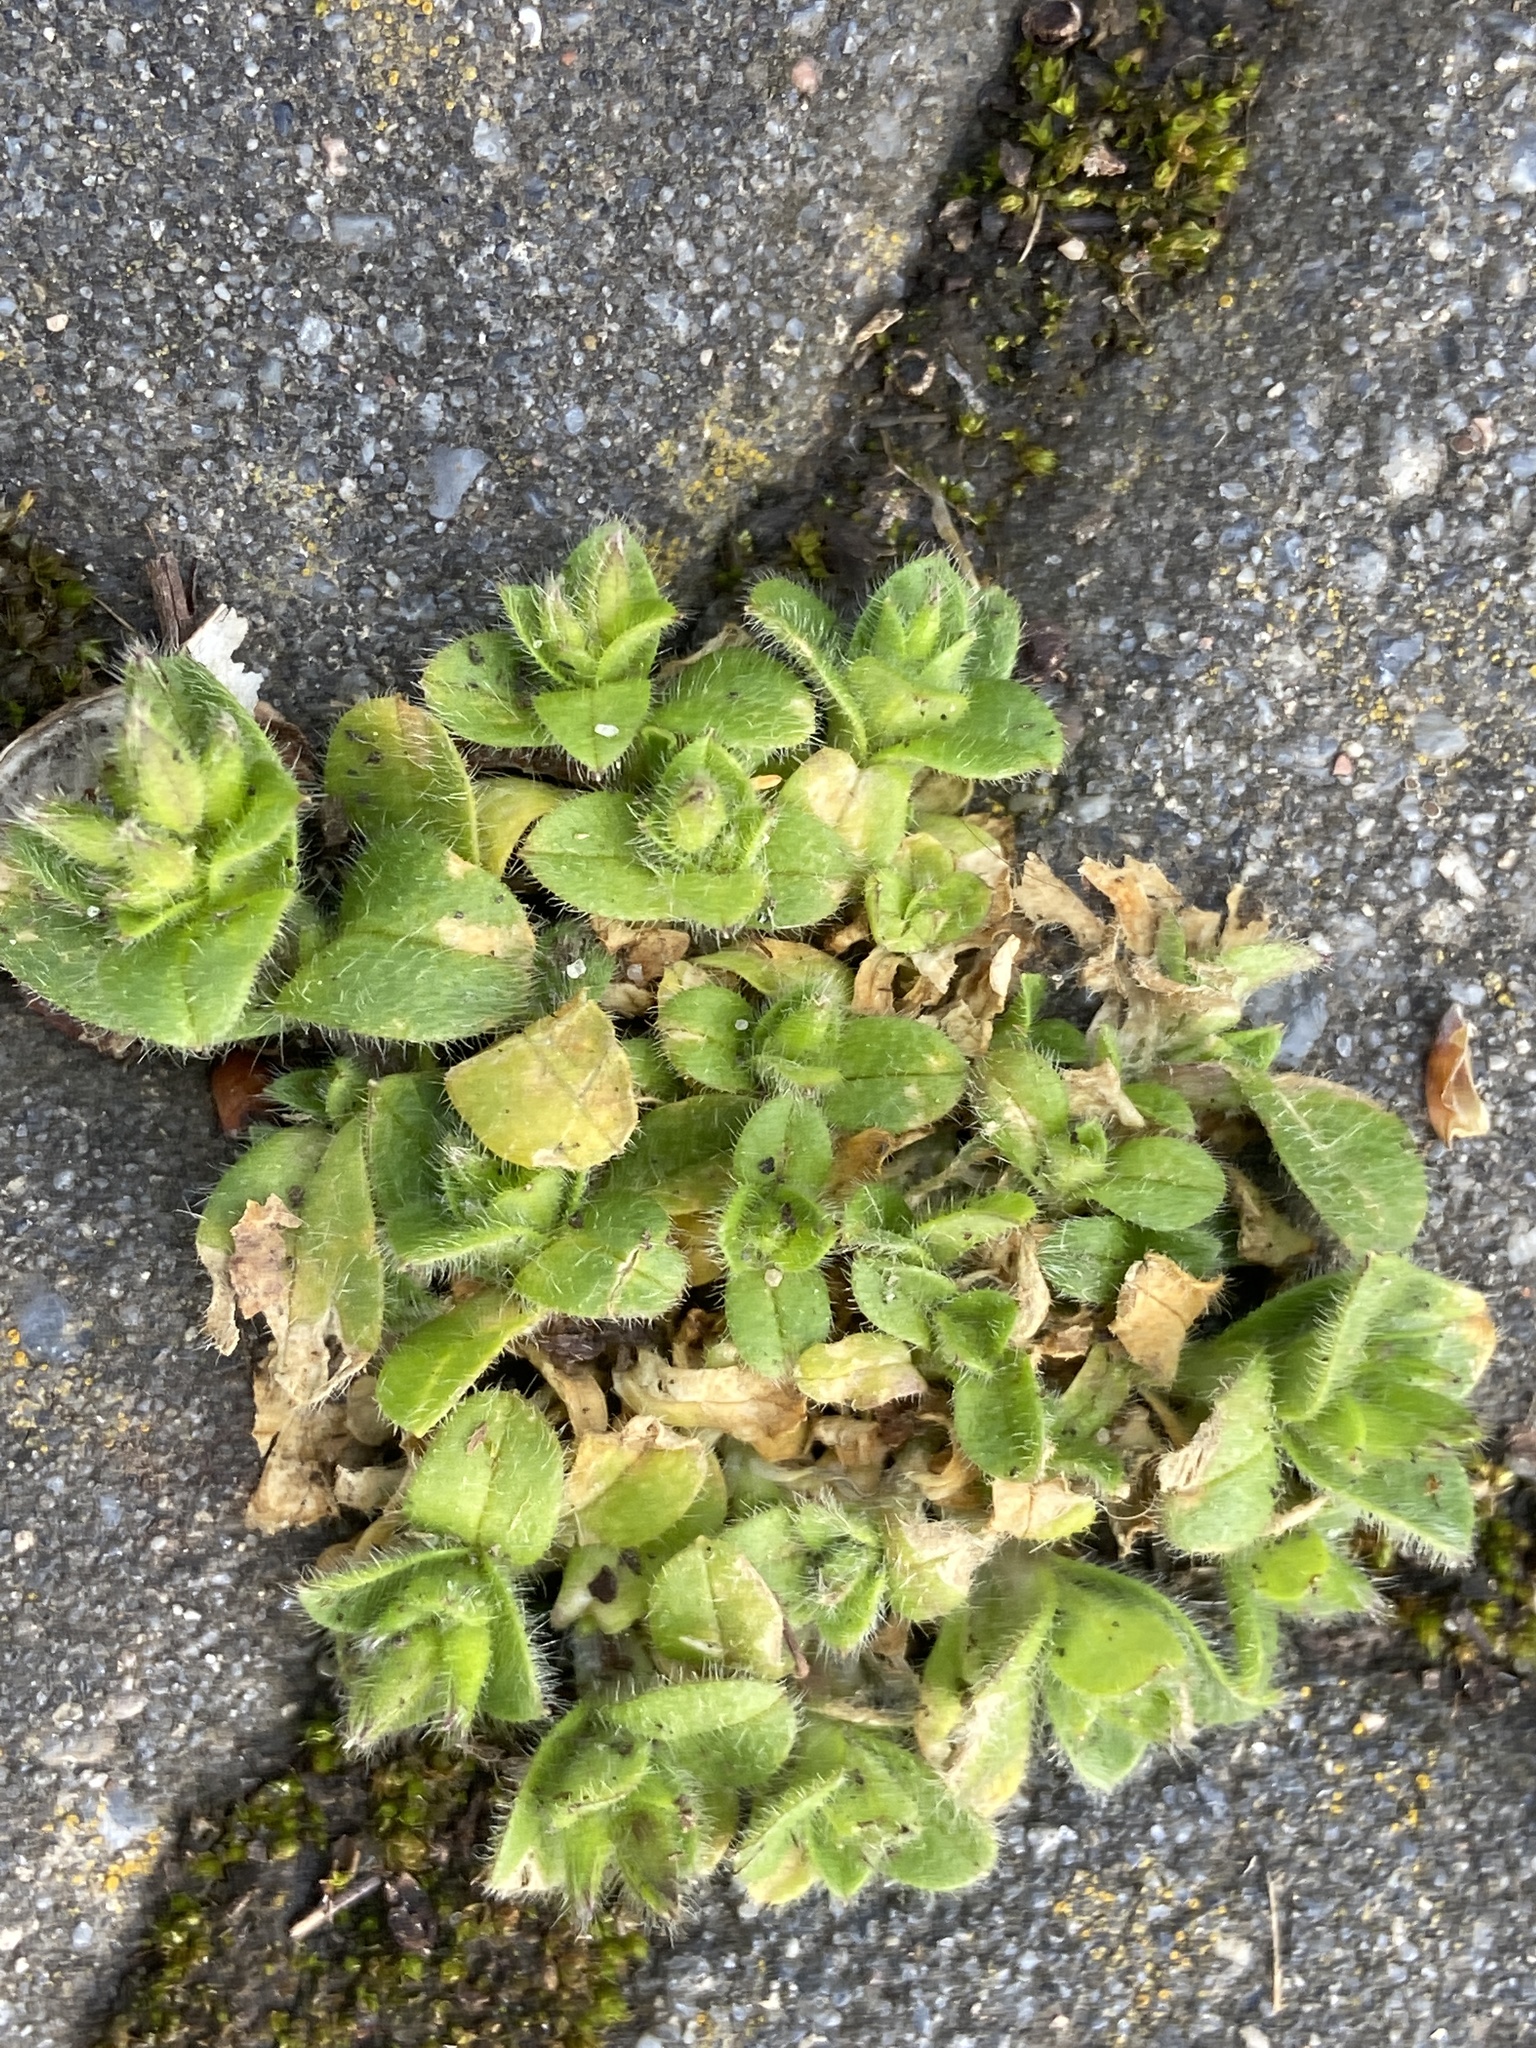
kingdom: Plantae
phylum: Tracheophyta
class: Magnoliopsida
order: Caryophyllales
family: Caryophyllaceae
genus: Cerastium
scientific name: Cerastium glomeratum
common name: Sticky chickweed
